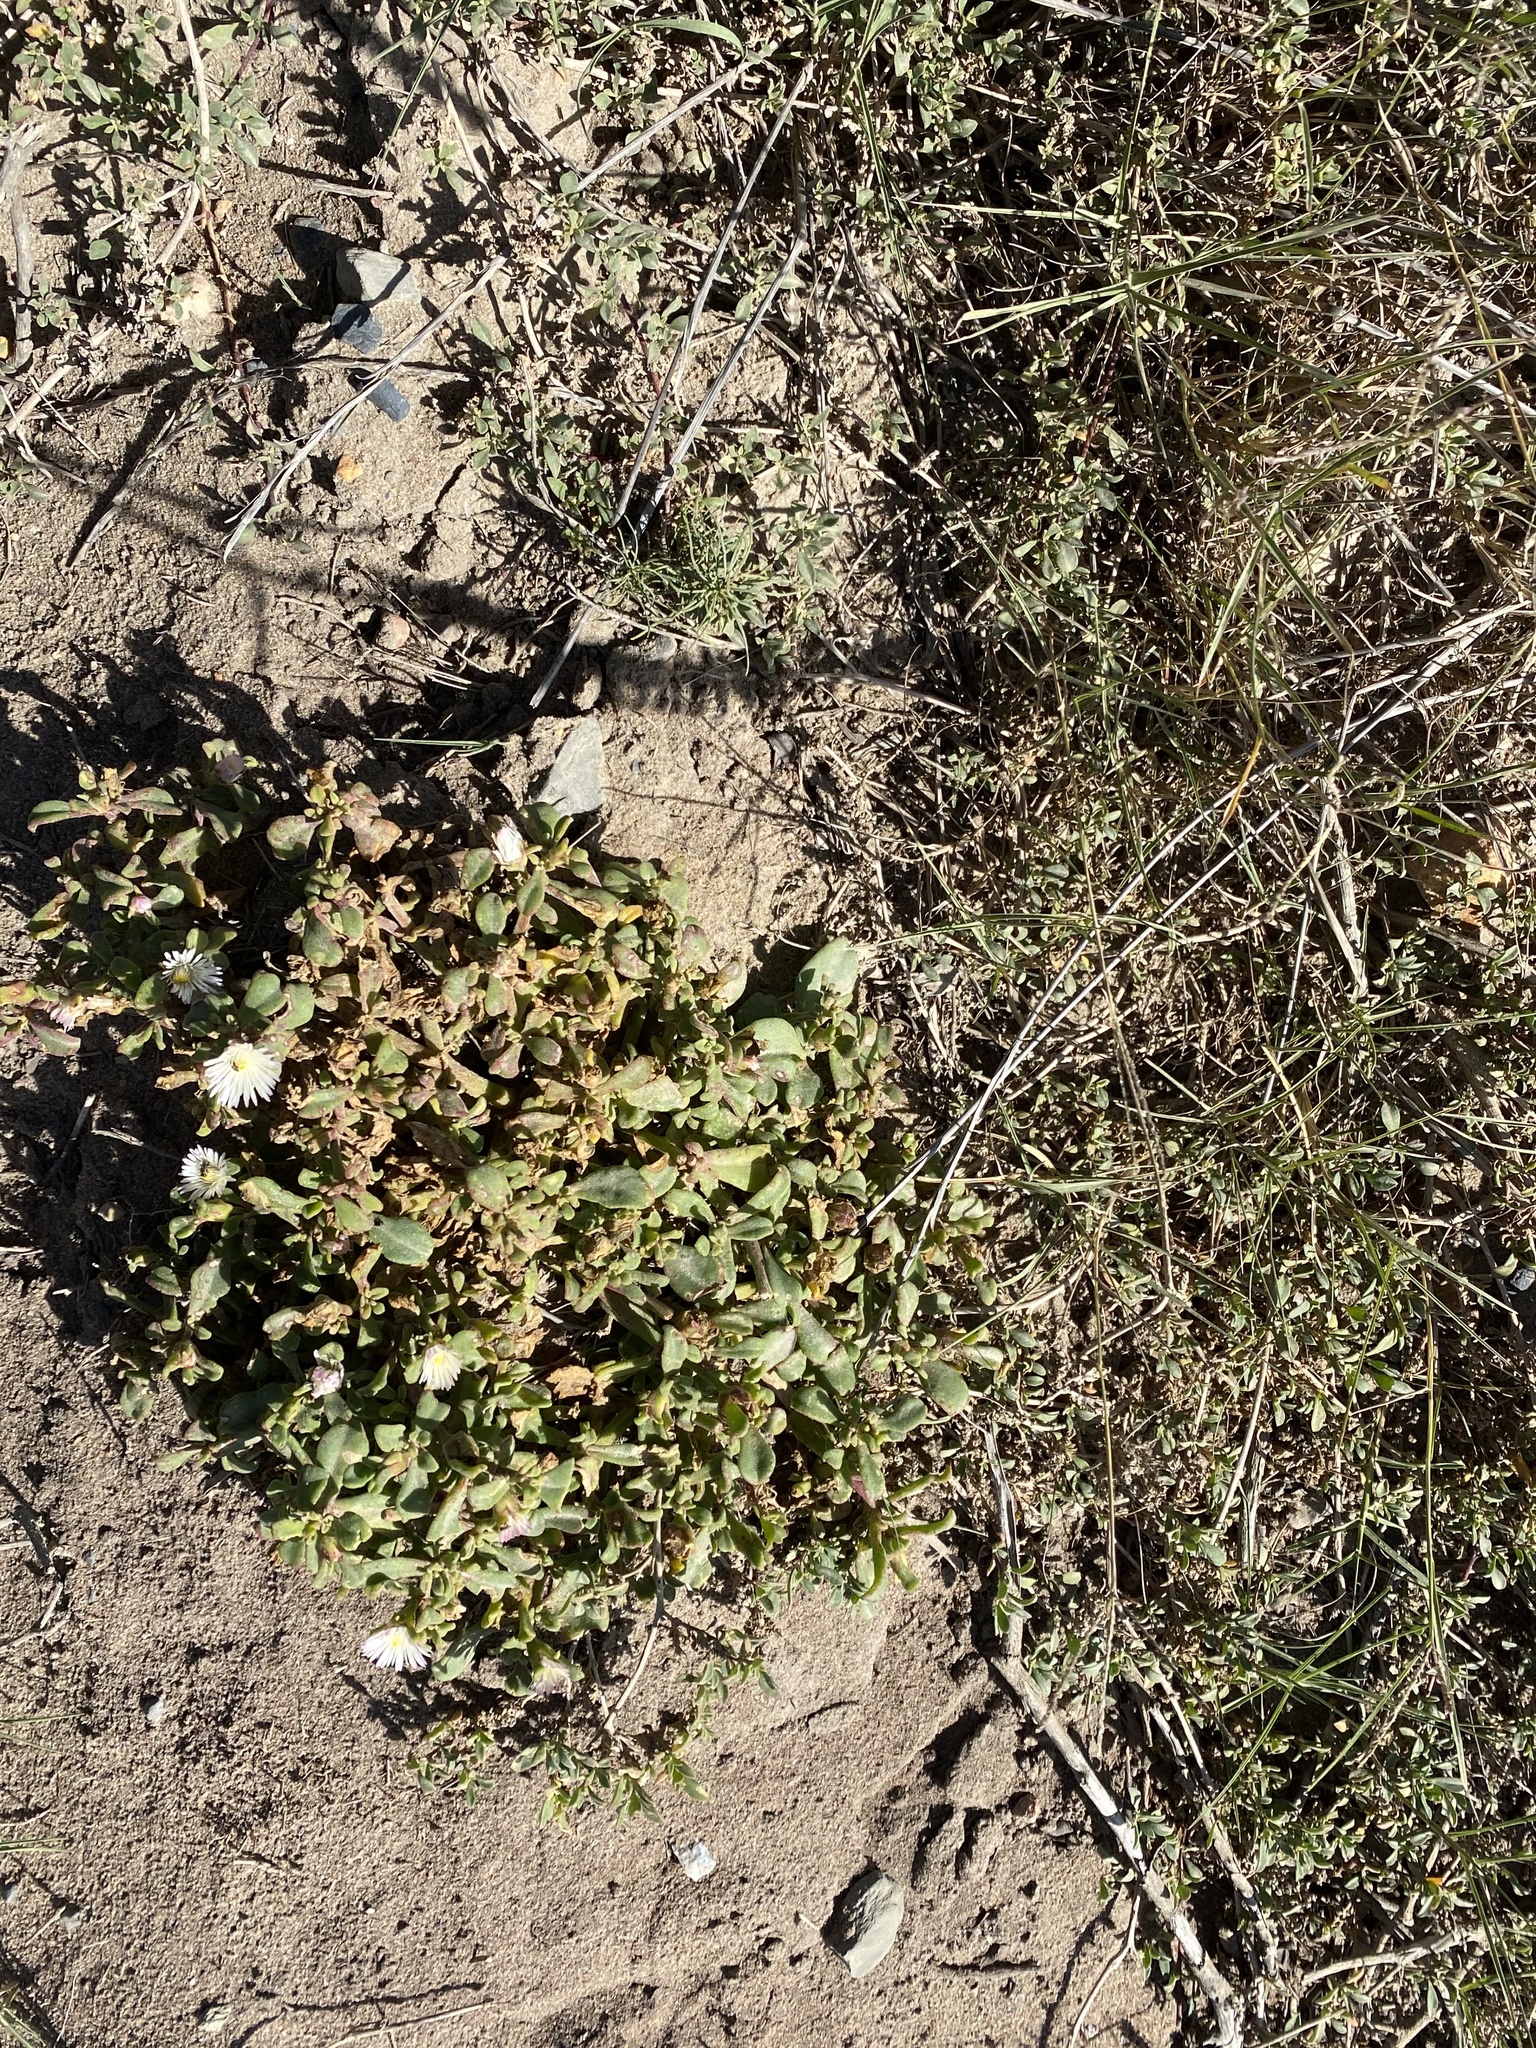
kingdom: Plantae
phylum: Tracheophyta
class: Magnoliopsida
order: Caryophyllales
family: Aizoaceae
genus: Mesembryanthemum
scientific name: Mesembryanthemum aitonis
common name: Angled iceplant
